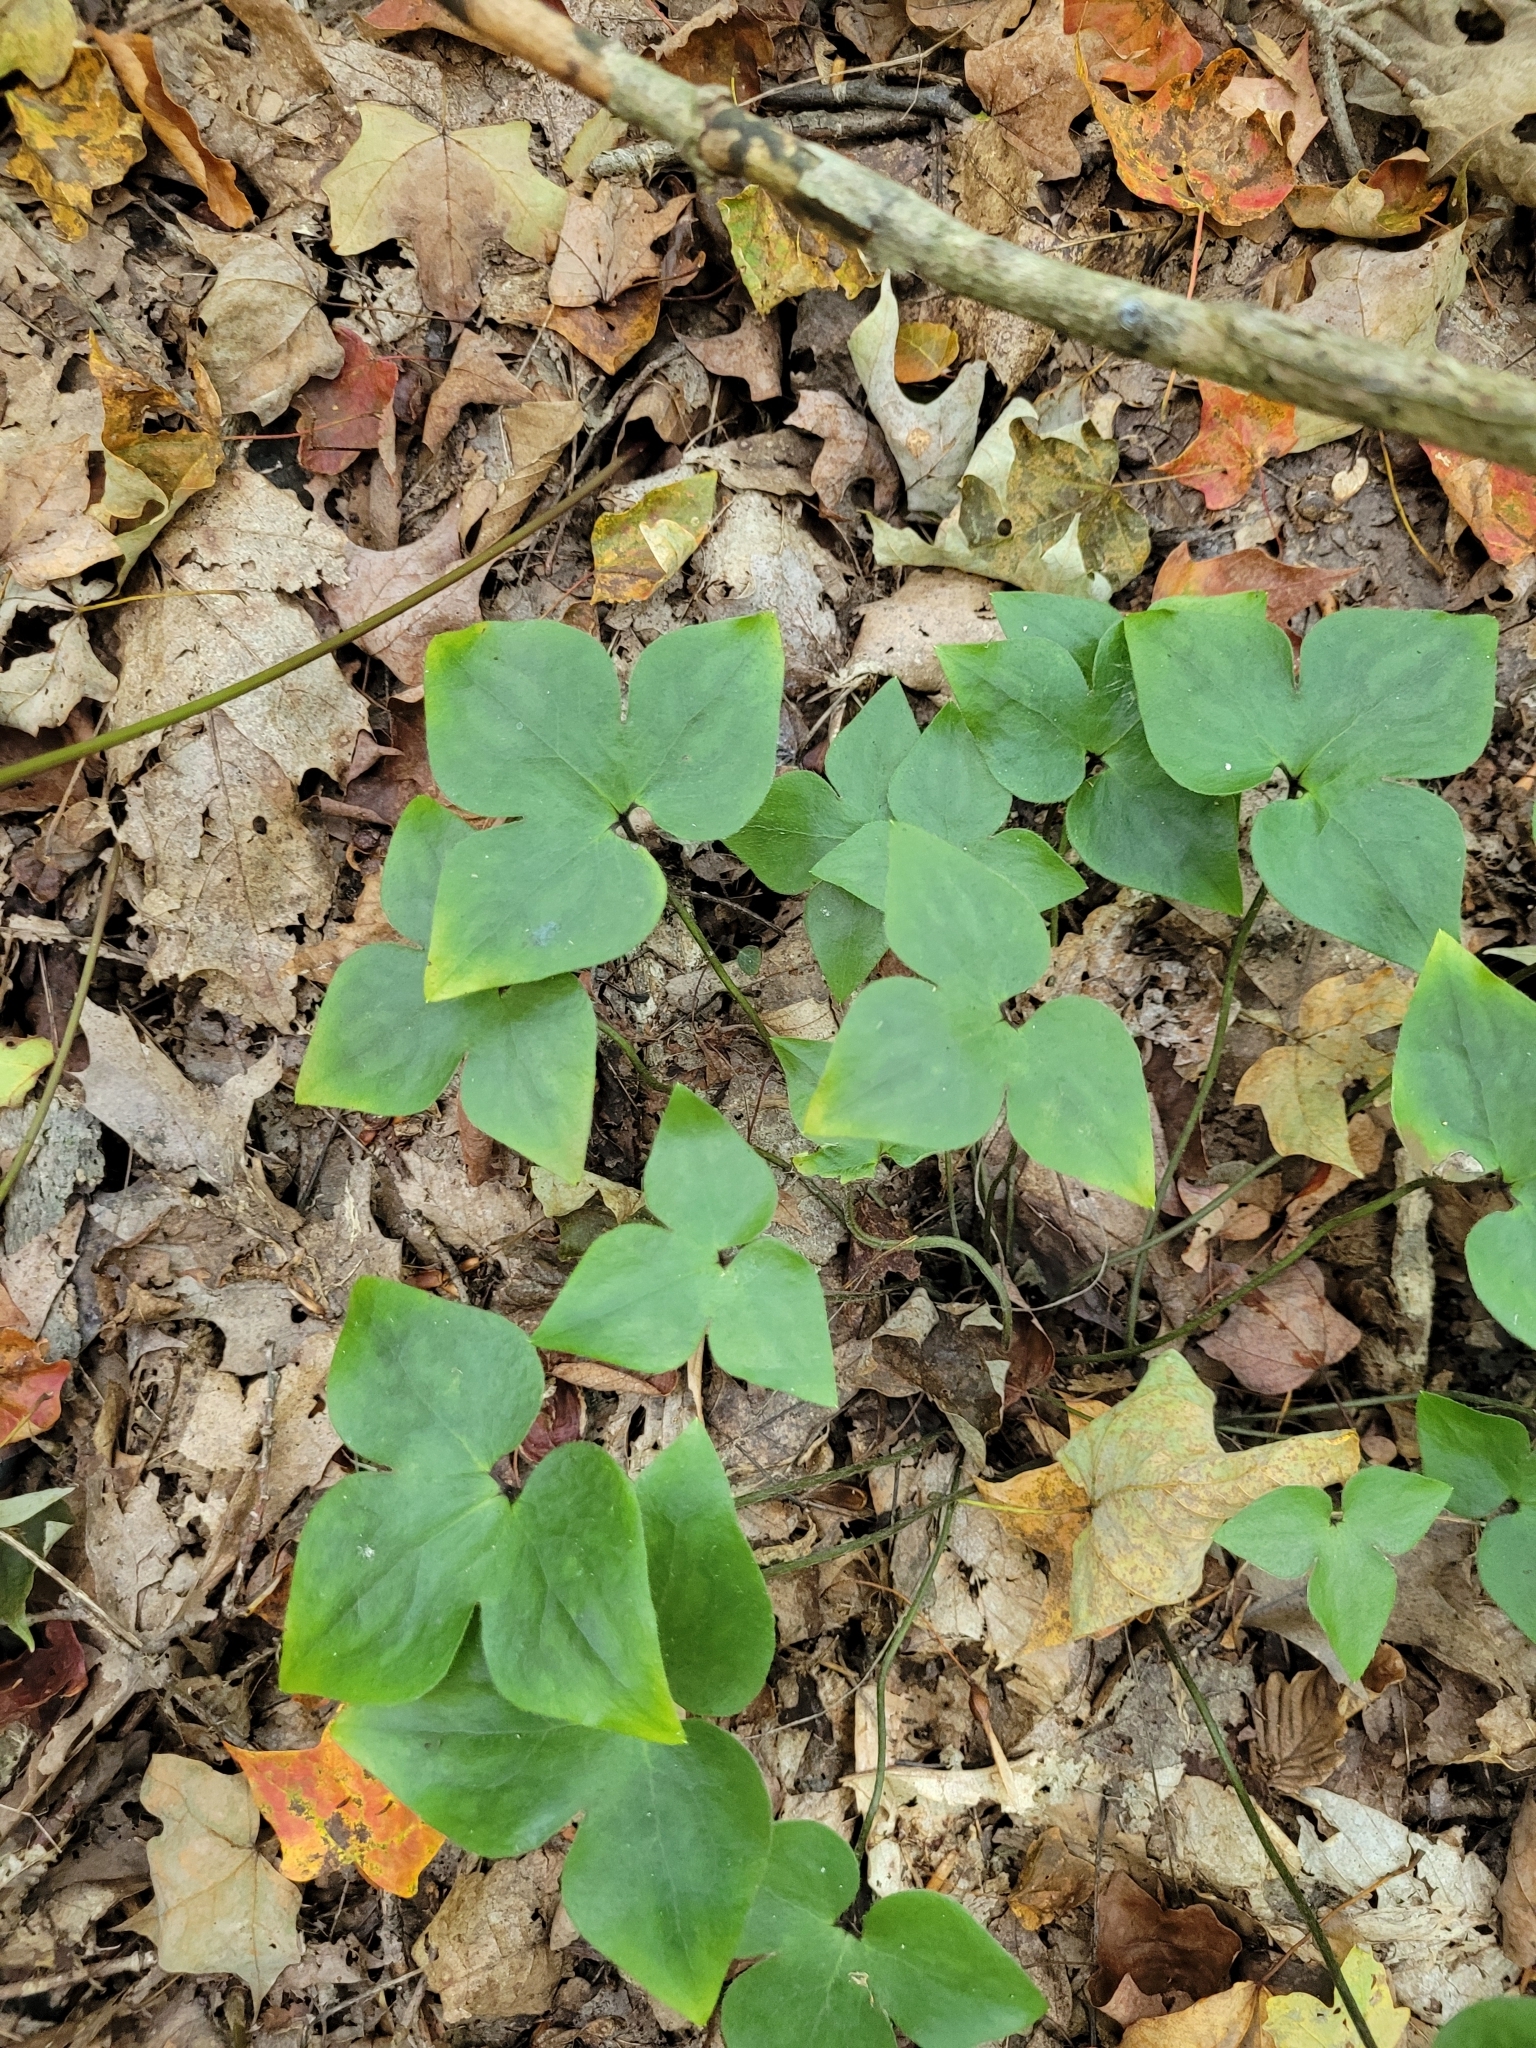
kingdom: Plantae
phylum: Tracheophyta
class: Magnoliopsida
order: Ranunculales
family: Ranunculaceae
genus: Hepatica
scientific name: Hepatica acutiloba
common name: Sharp-lobed hepatica
